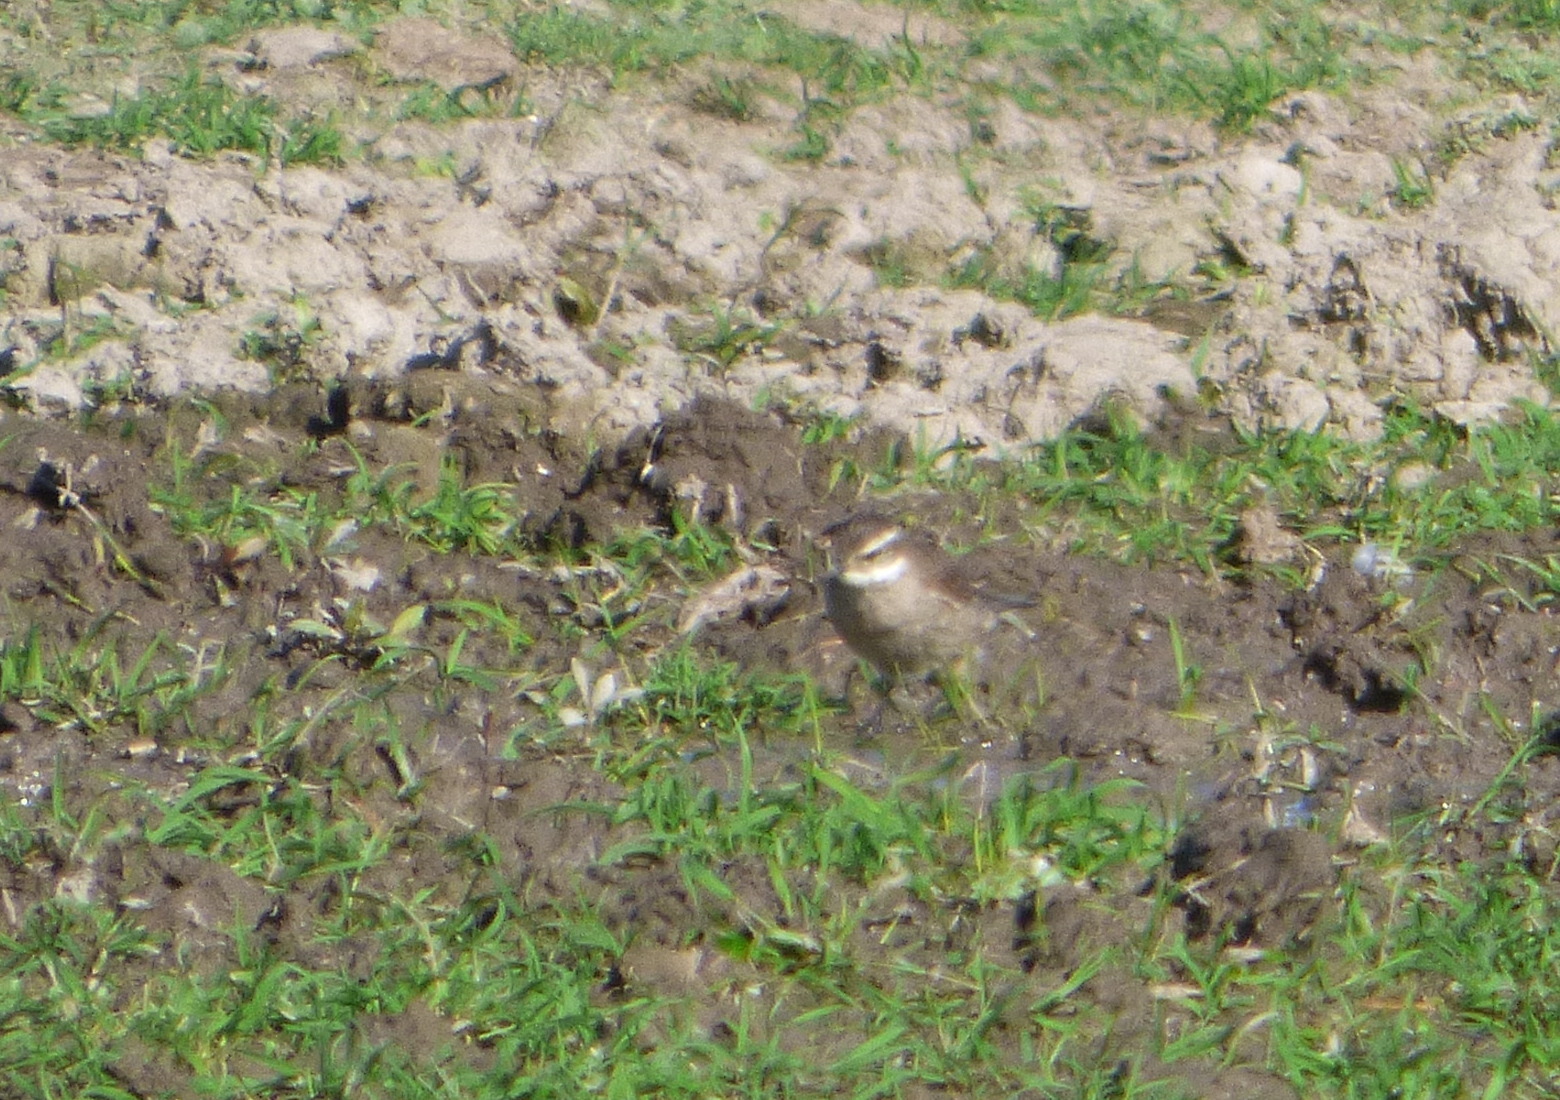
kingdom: Animalia
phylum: Chordata
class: Aves
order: Passeriformes
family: Furnariidae
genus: Cinclodes
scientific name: Cinclodes fuscus
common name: Buff-winged cinclodes
